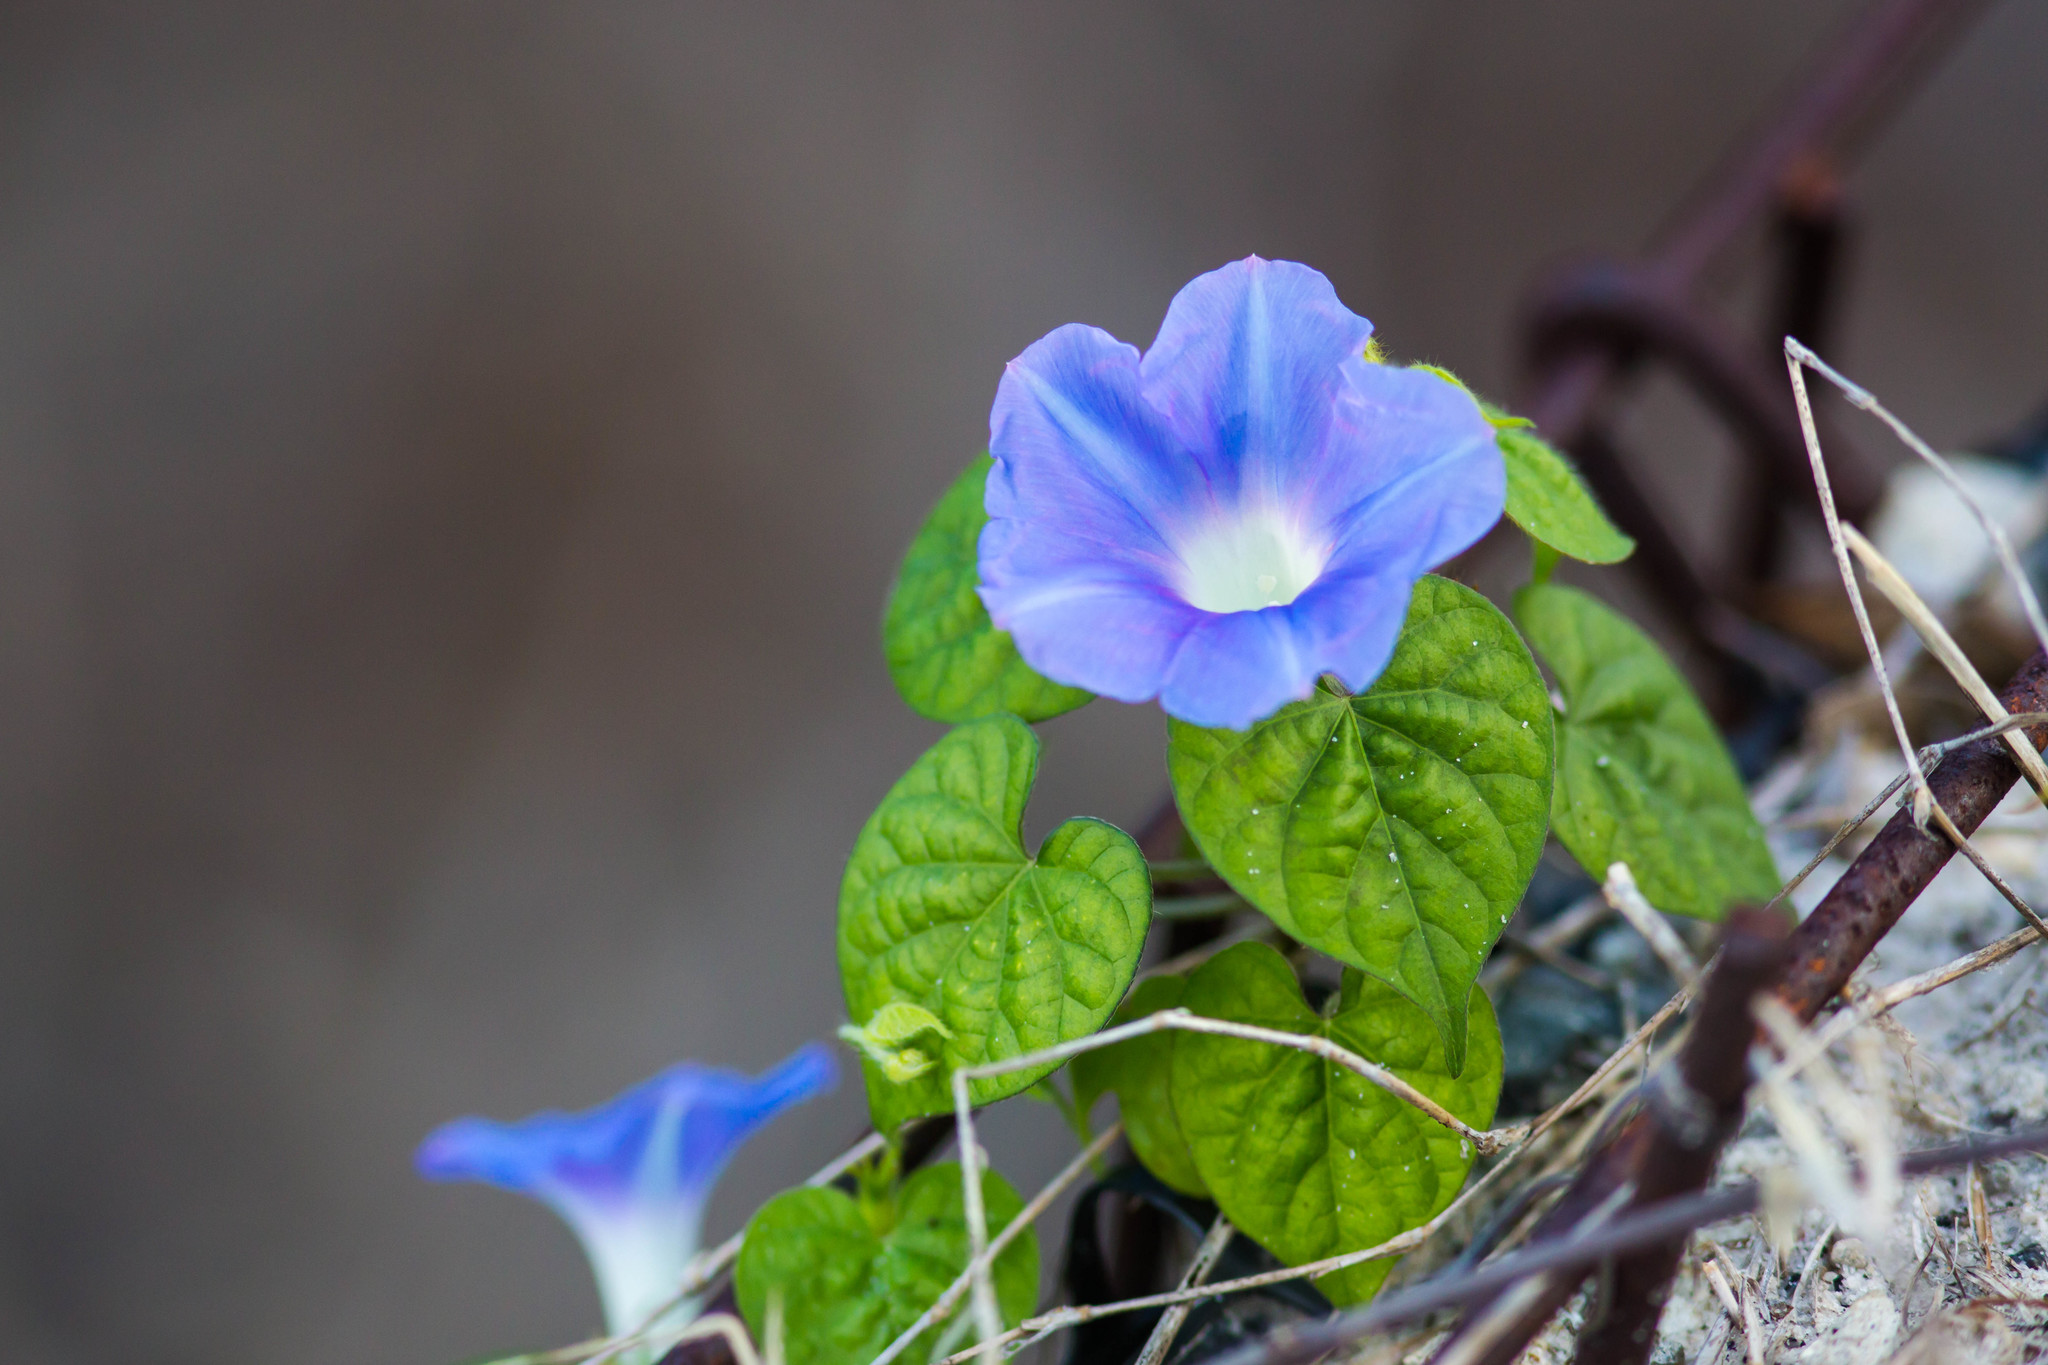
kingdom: Plantae
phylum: Tracheophyta
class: Magnoliopsida
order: Solanales
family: Convolvulaceae
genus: Ipomoea
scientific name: Ipomoea hederacea
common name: Ivy-leaved morning-glory
